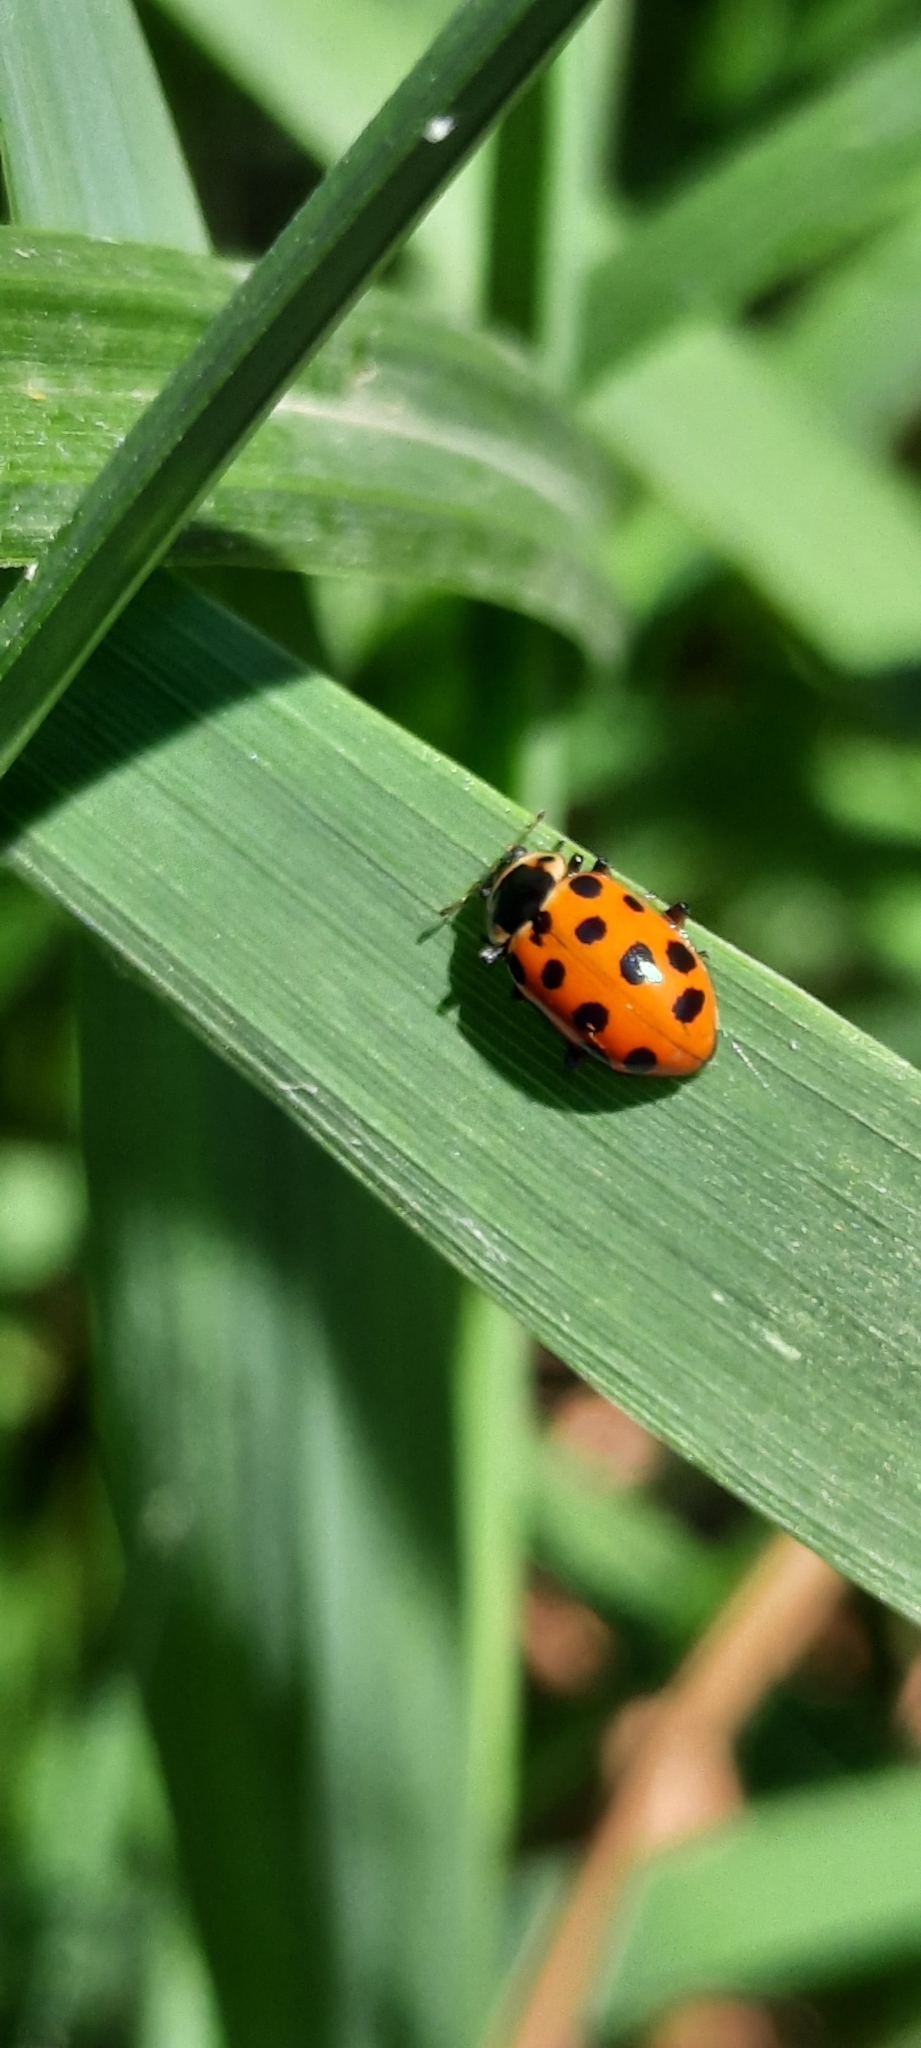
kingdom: Animalia
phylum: Arthropoda
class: Insecta
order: Coleoptera
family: Coccinellidae
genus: Hippodamia
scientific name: Hippodamia tredecimpunctata
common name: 13-spot ladybird
